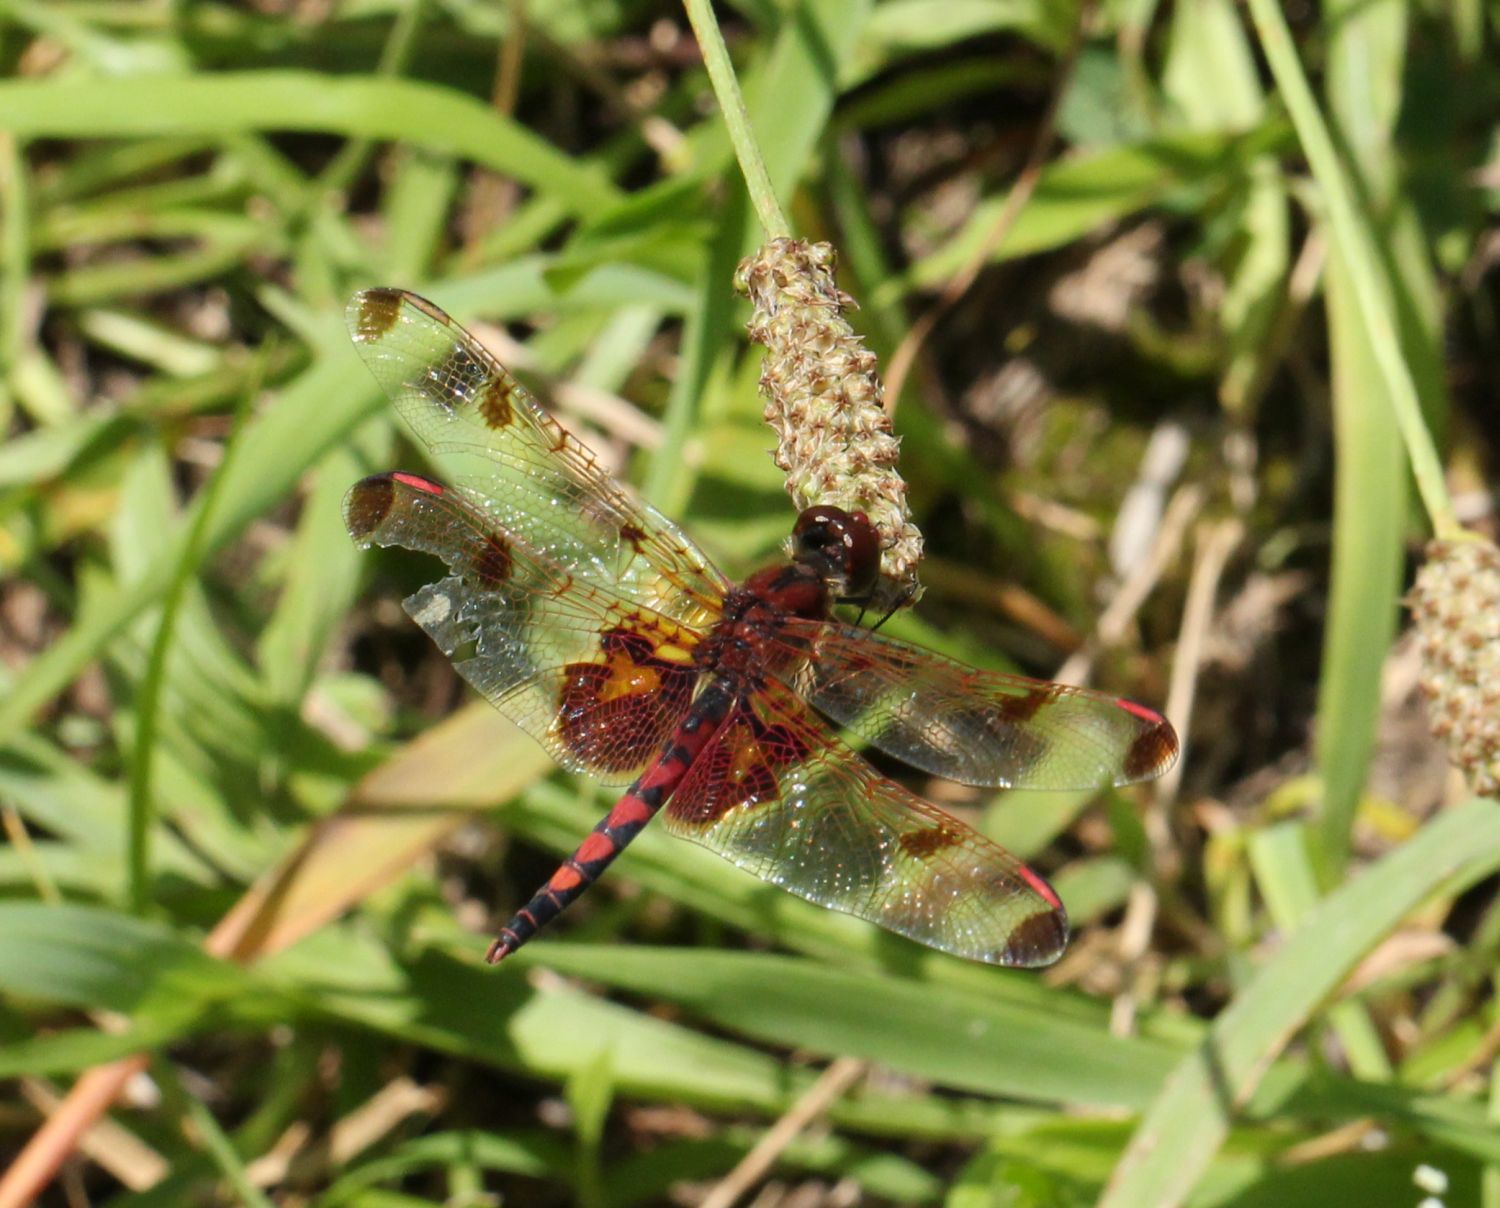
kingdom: Animalia
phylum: Arthropoda
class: Insecta
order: Odonata
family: Libellulidae
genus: Celithemis
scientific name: Celithemis elisa
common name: Calico pennant
